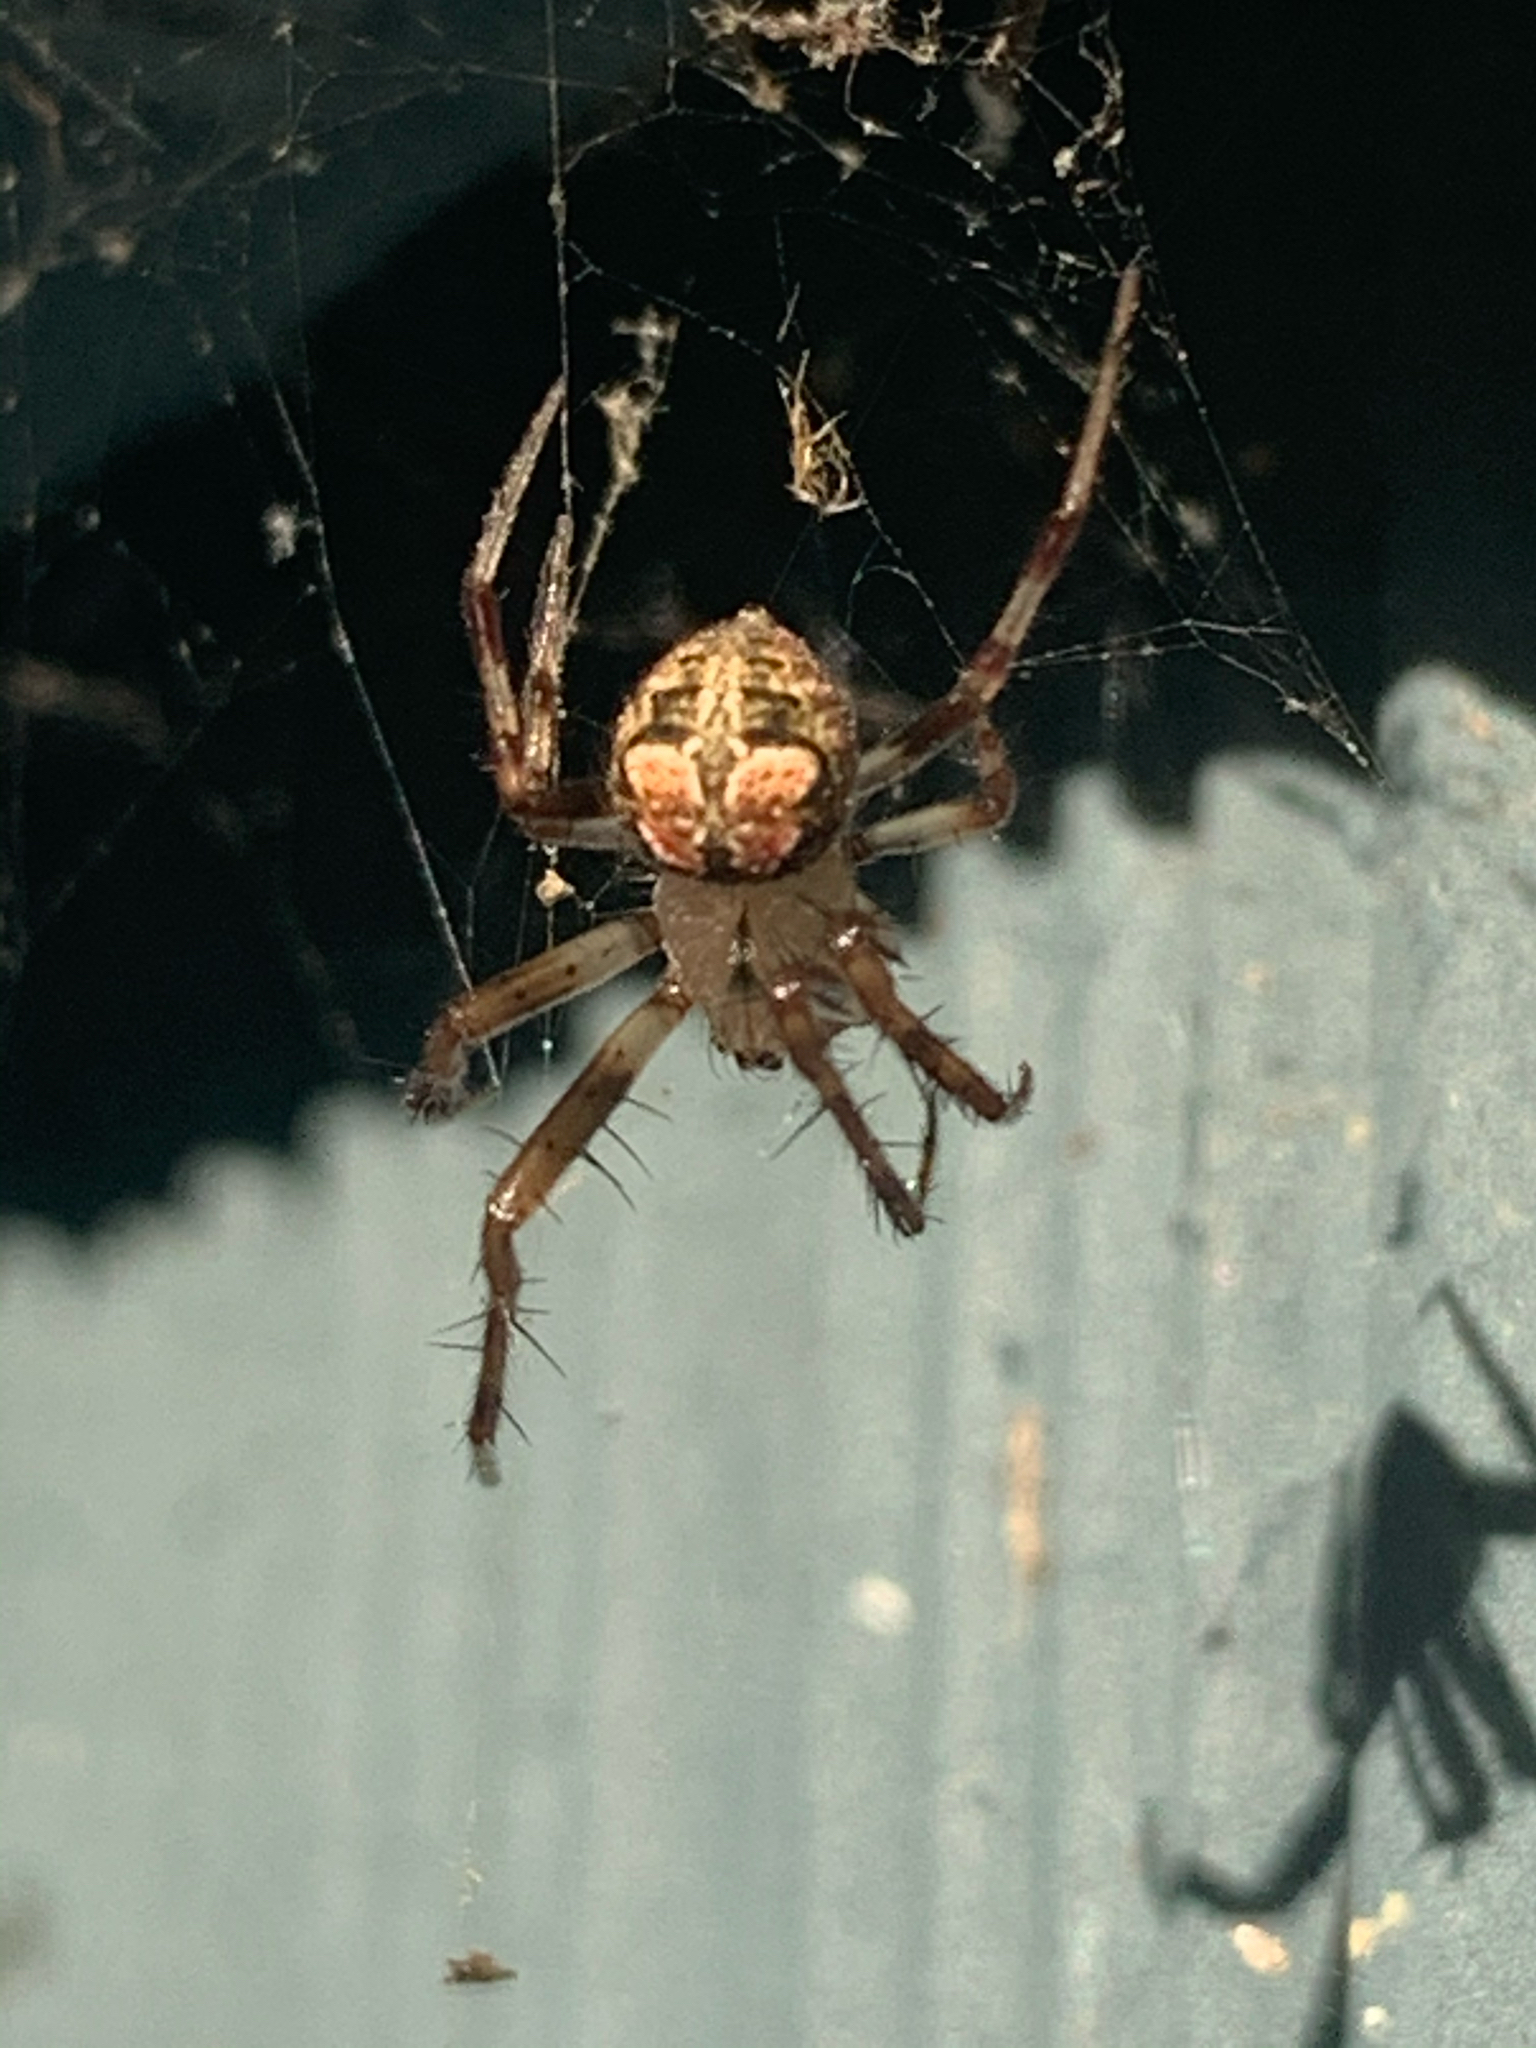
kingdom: Animalia
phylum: Arthropoda
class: Arachnida
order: Araneae
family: Araneidae
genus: Araneus
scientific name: Araneus pegnia
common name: Orb weavers
